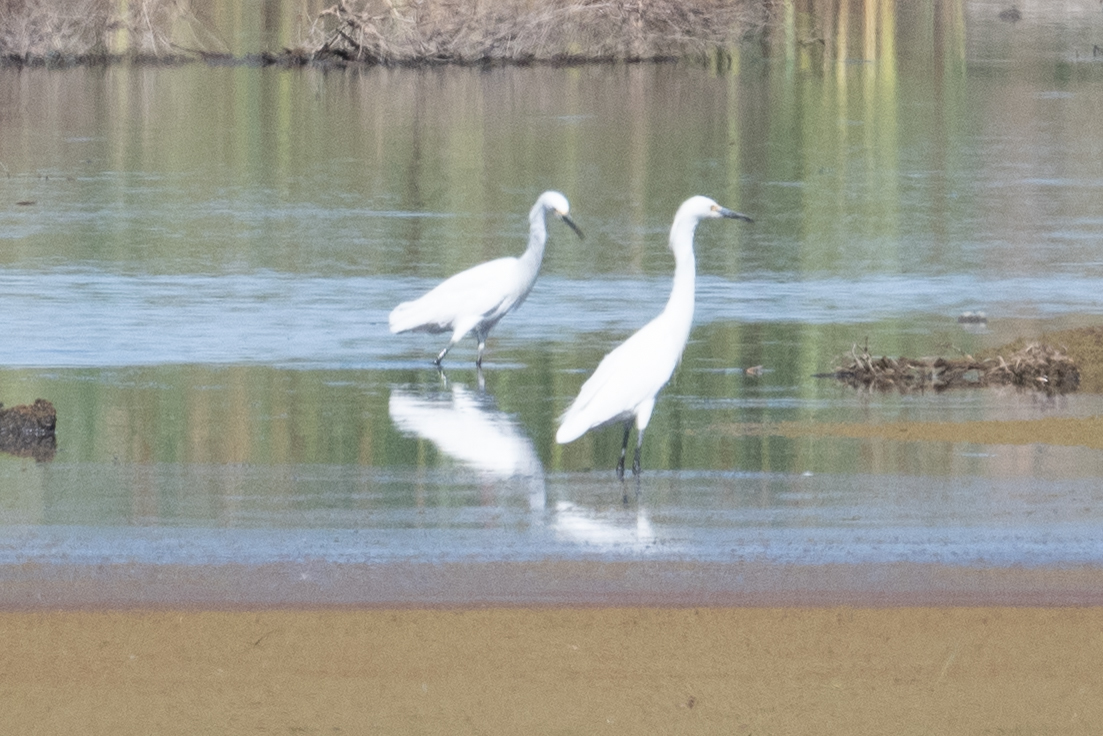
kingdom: Animalia
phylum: Chordata
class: Aves
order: Pelecaniformes
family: Ardeidae
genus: Egretta
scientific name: Egretta thula
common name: Snowy egret
